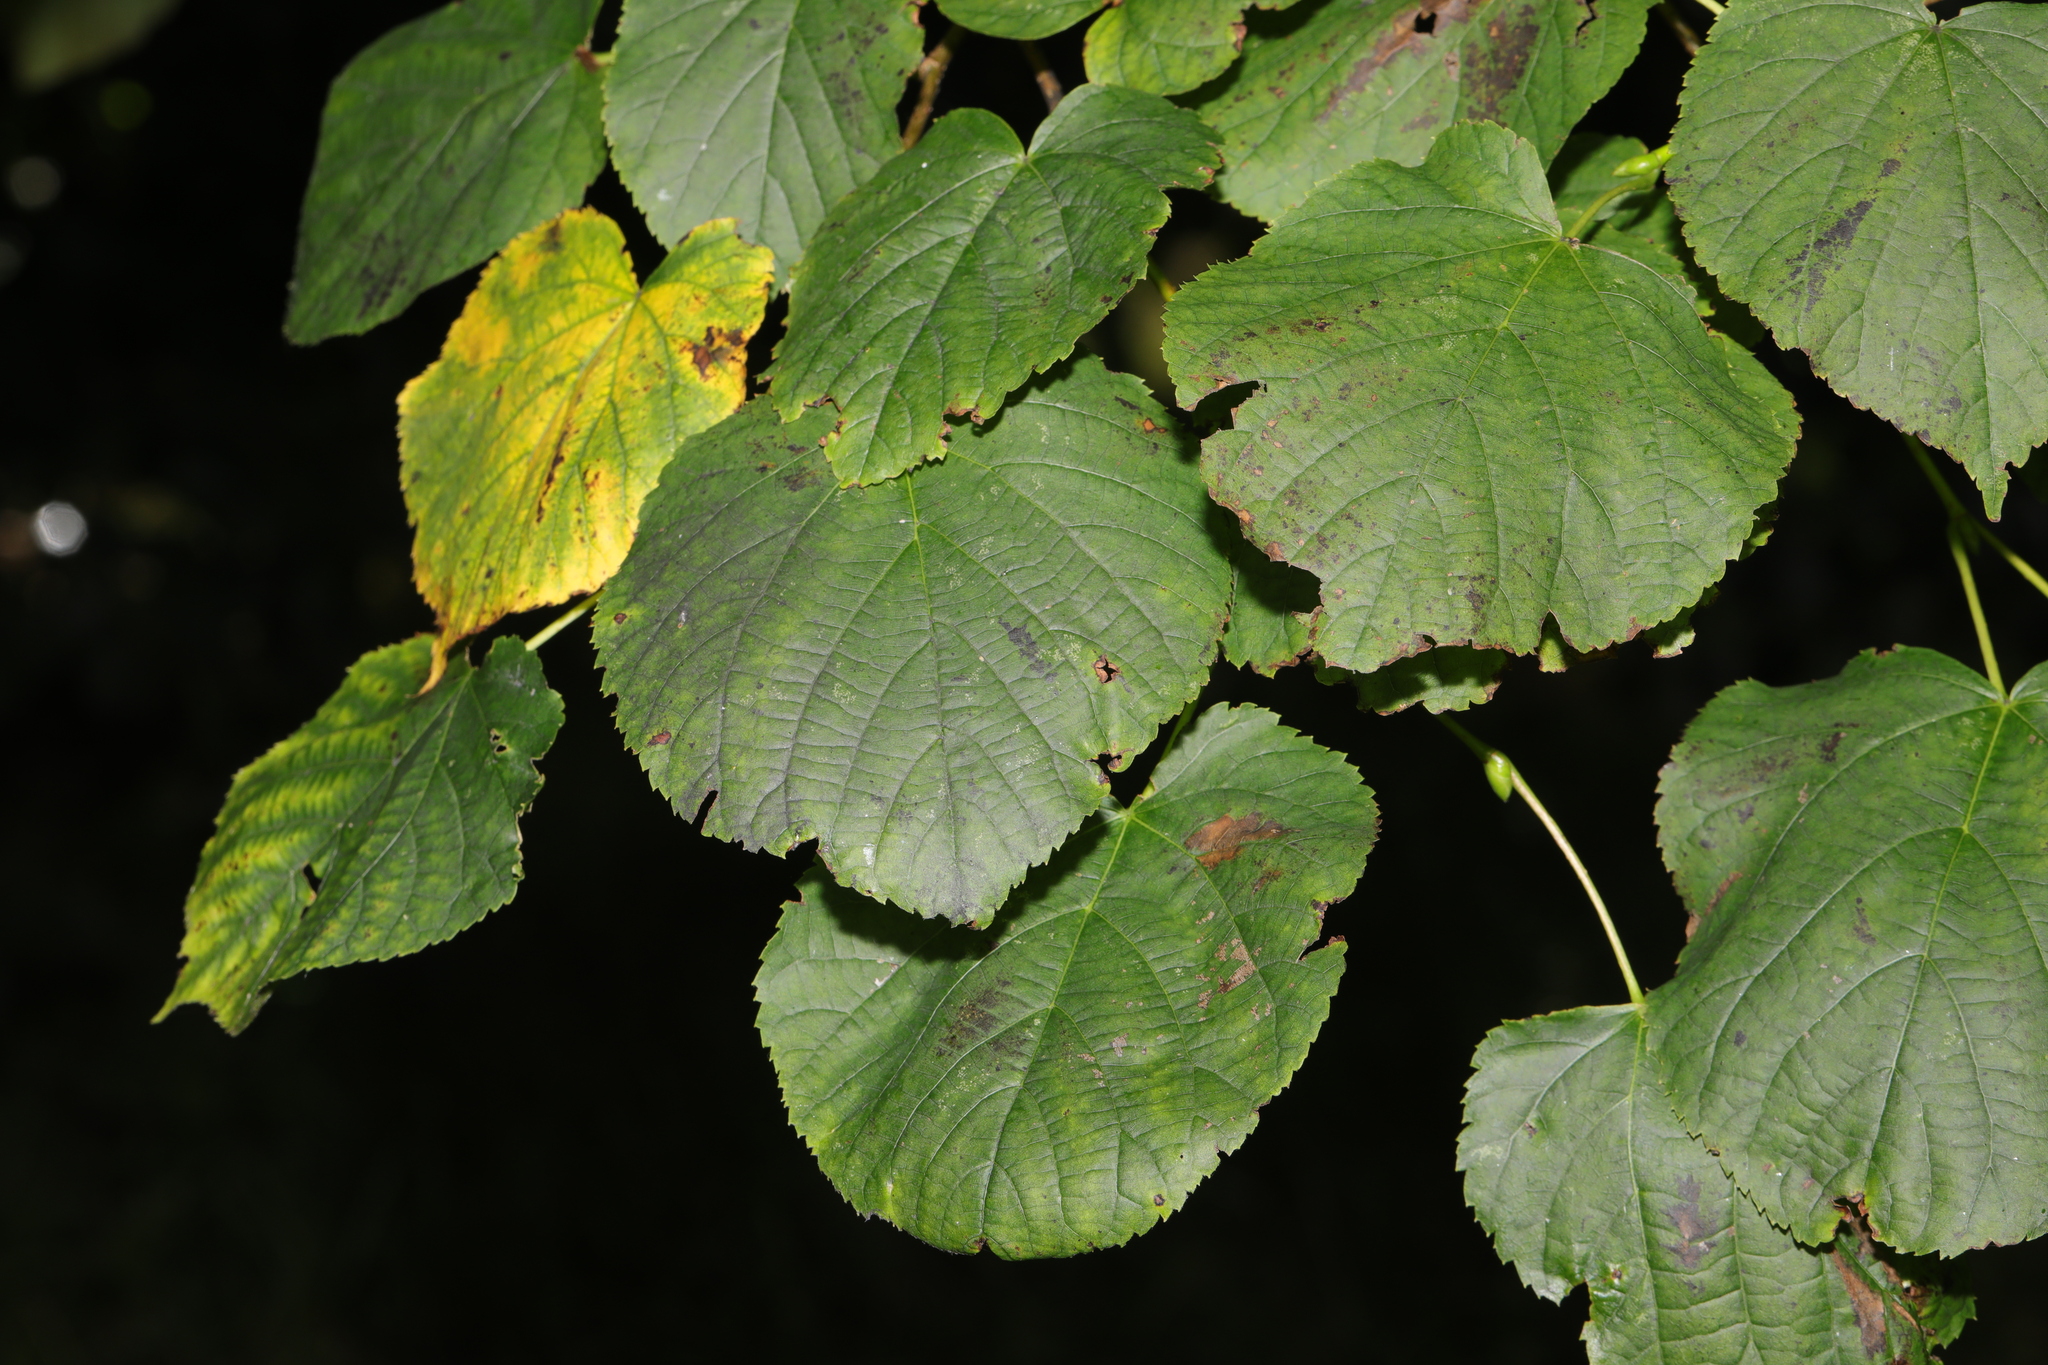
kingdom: Plantae
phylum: Tracheophyta
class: Magnoliopsida
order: Malvales
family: Malvaceae
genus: Tilia
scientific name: Tilia europaea
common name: European linden
